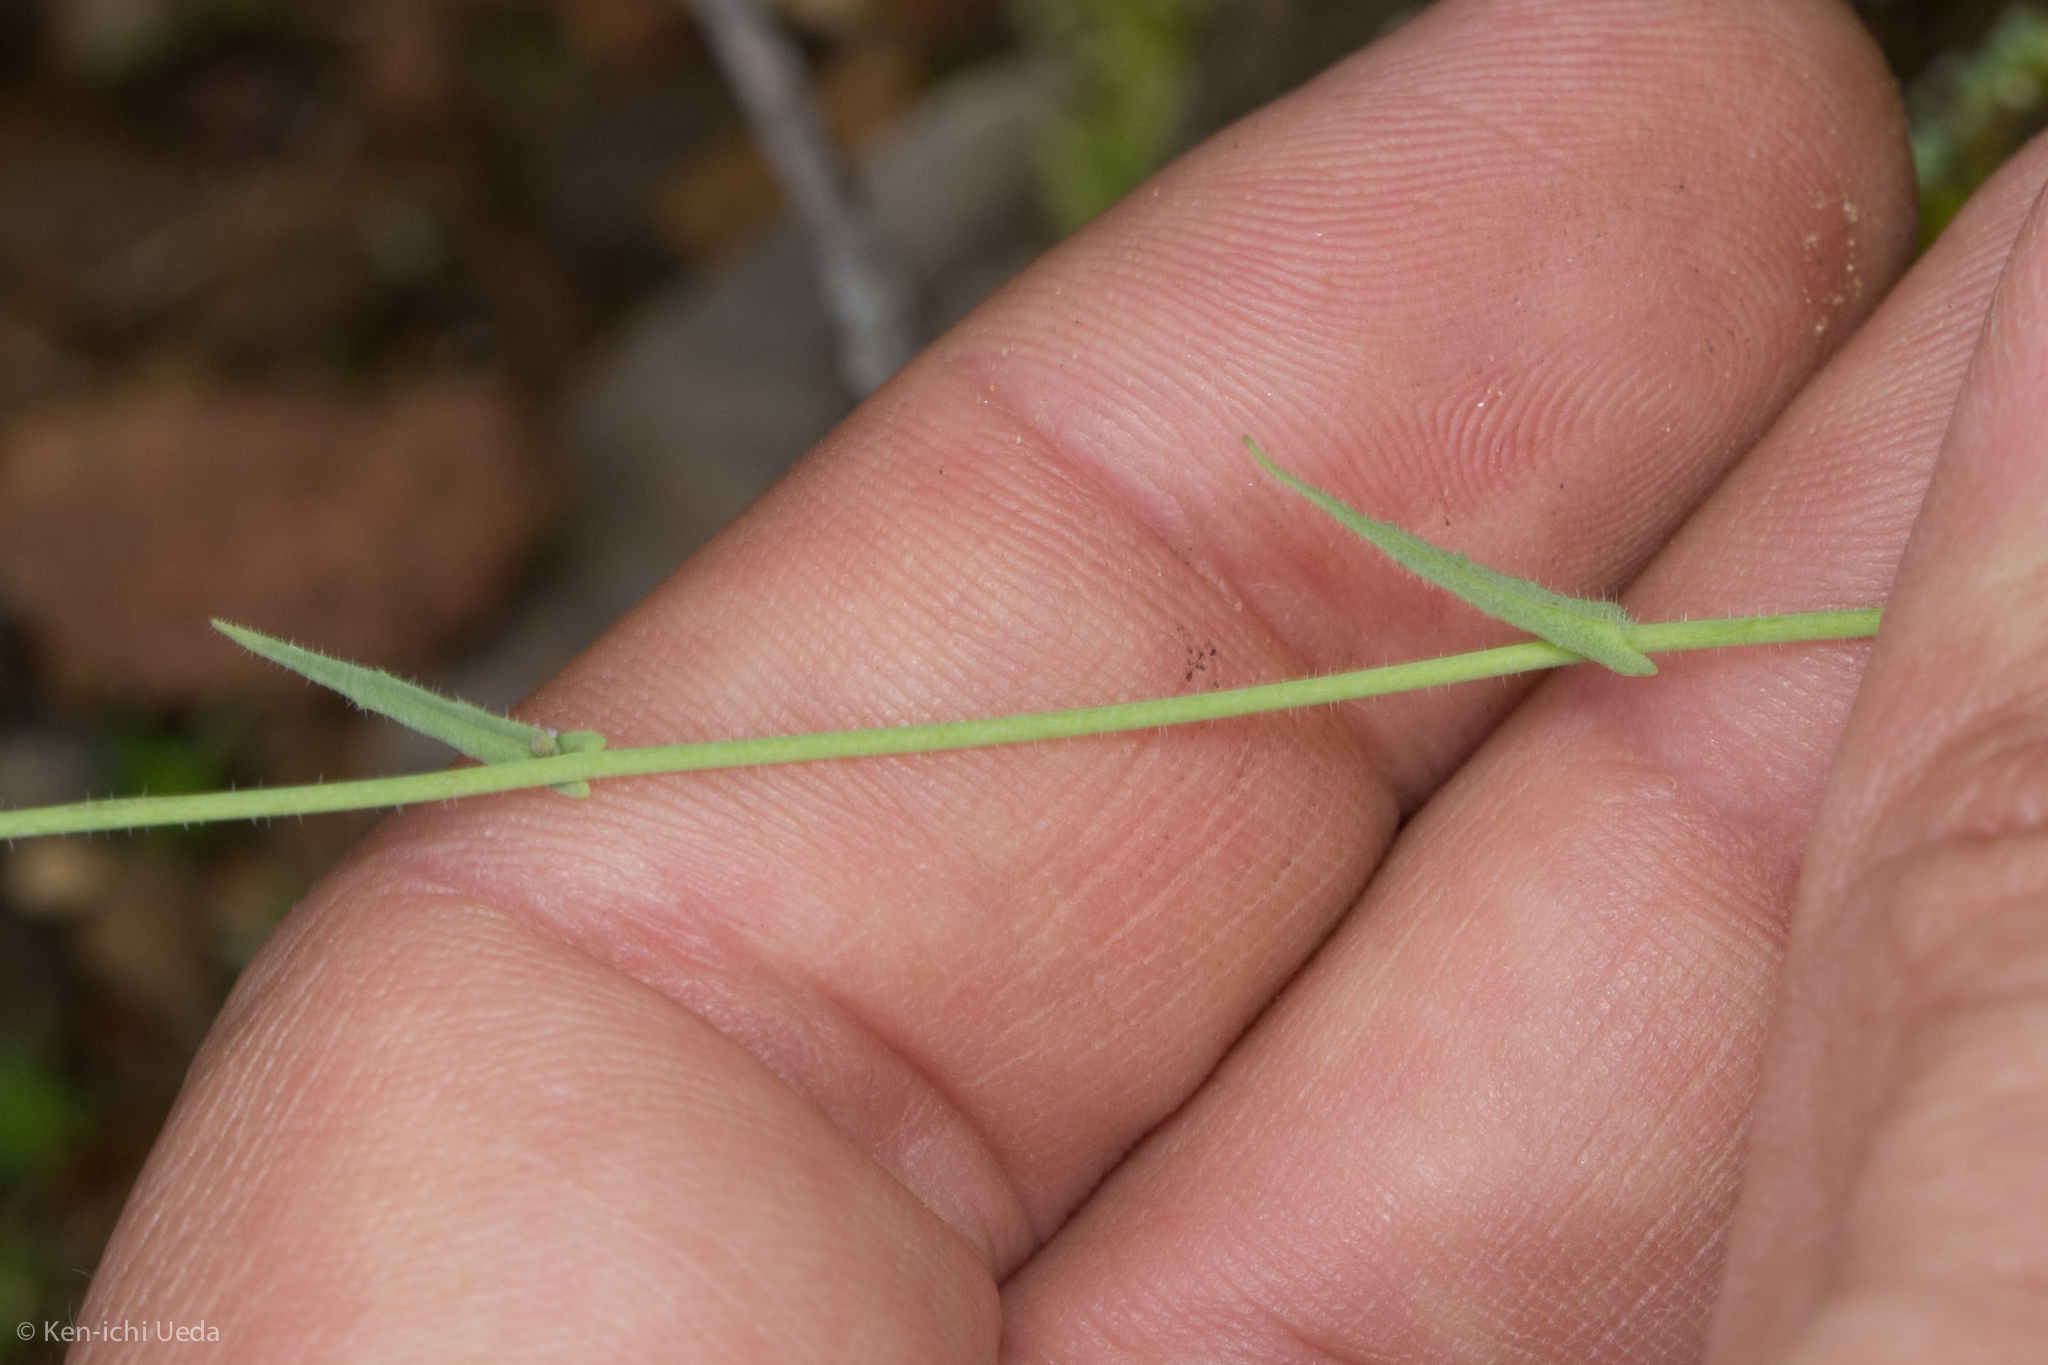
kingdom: Plantae
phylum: Tracheophyta
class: Magnoliopsida
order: Brassicales
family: Brassicaceae
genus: Thysanocarpus
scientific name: Thysanocarpus curvipes
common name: Sand fringepod
